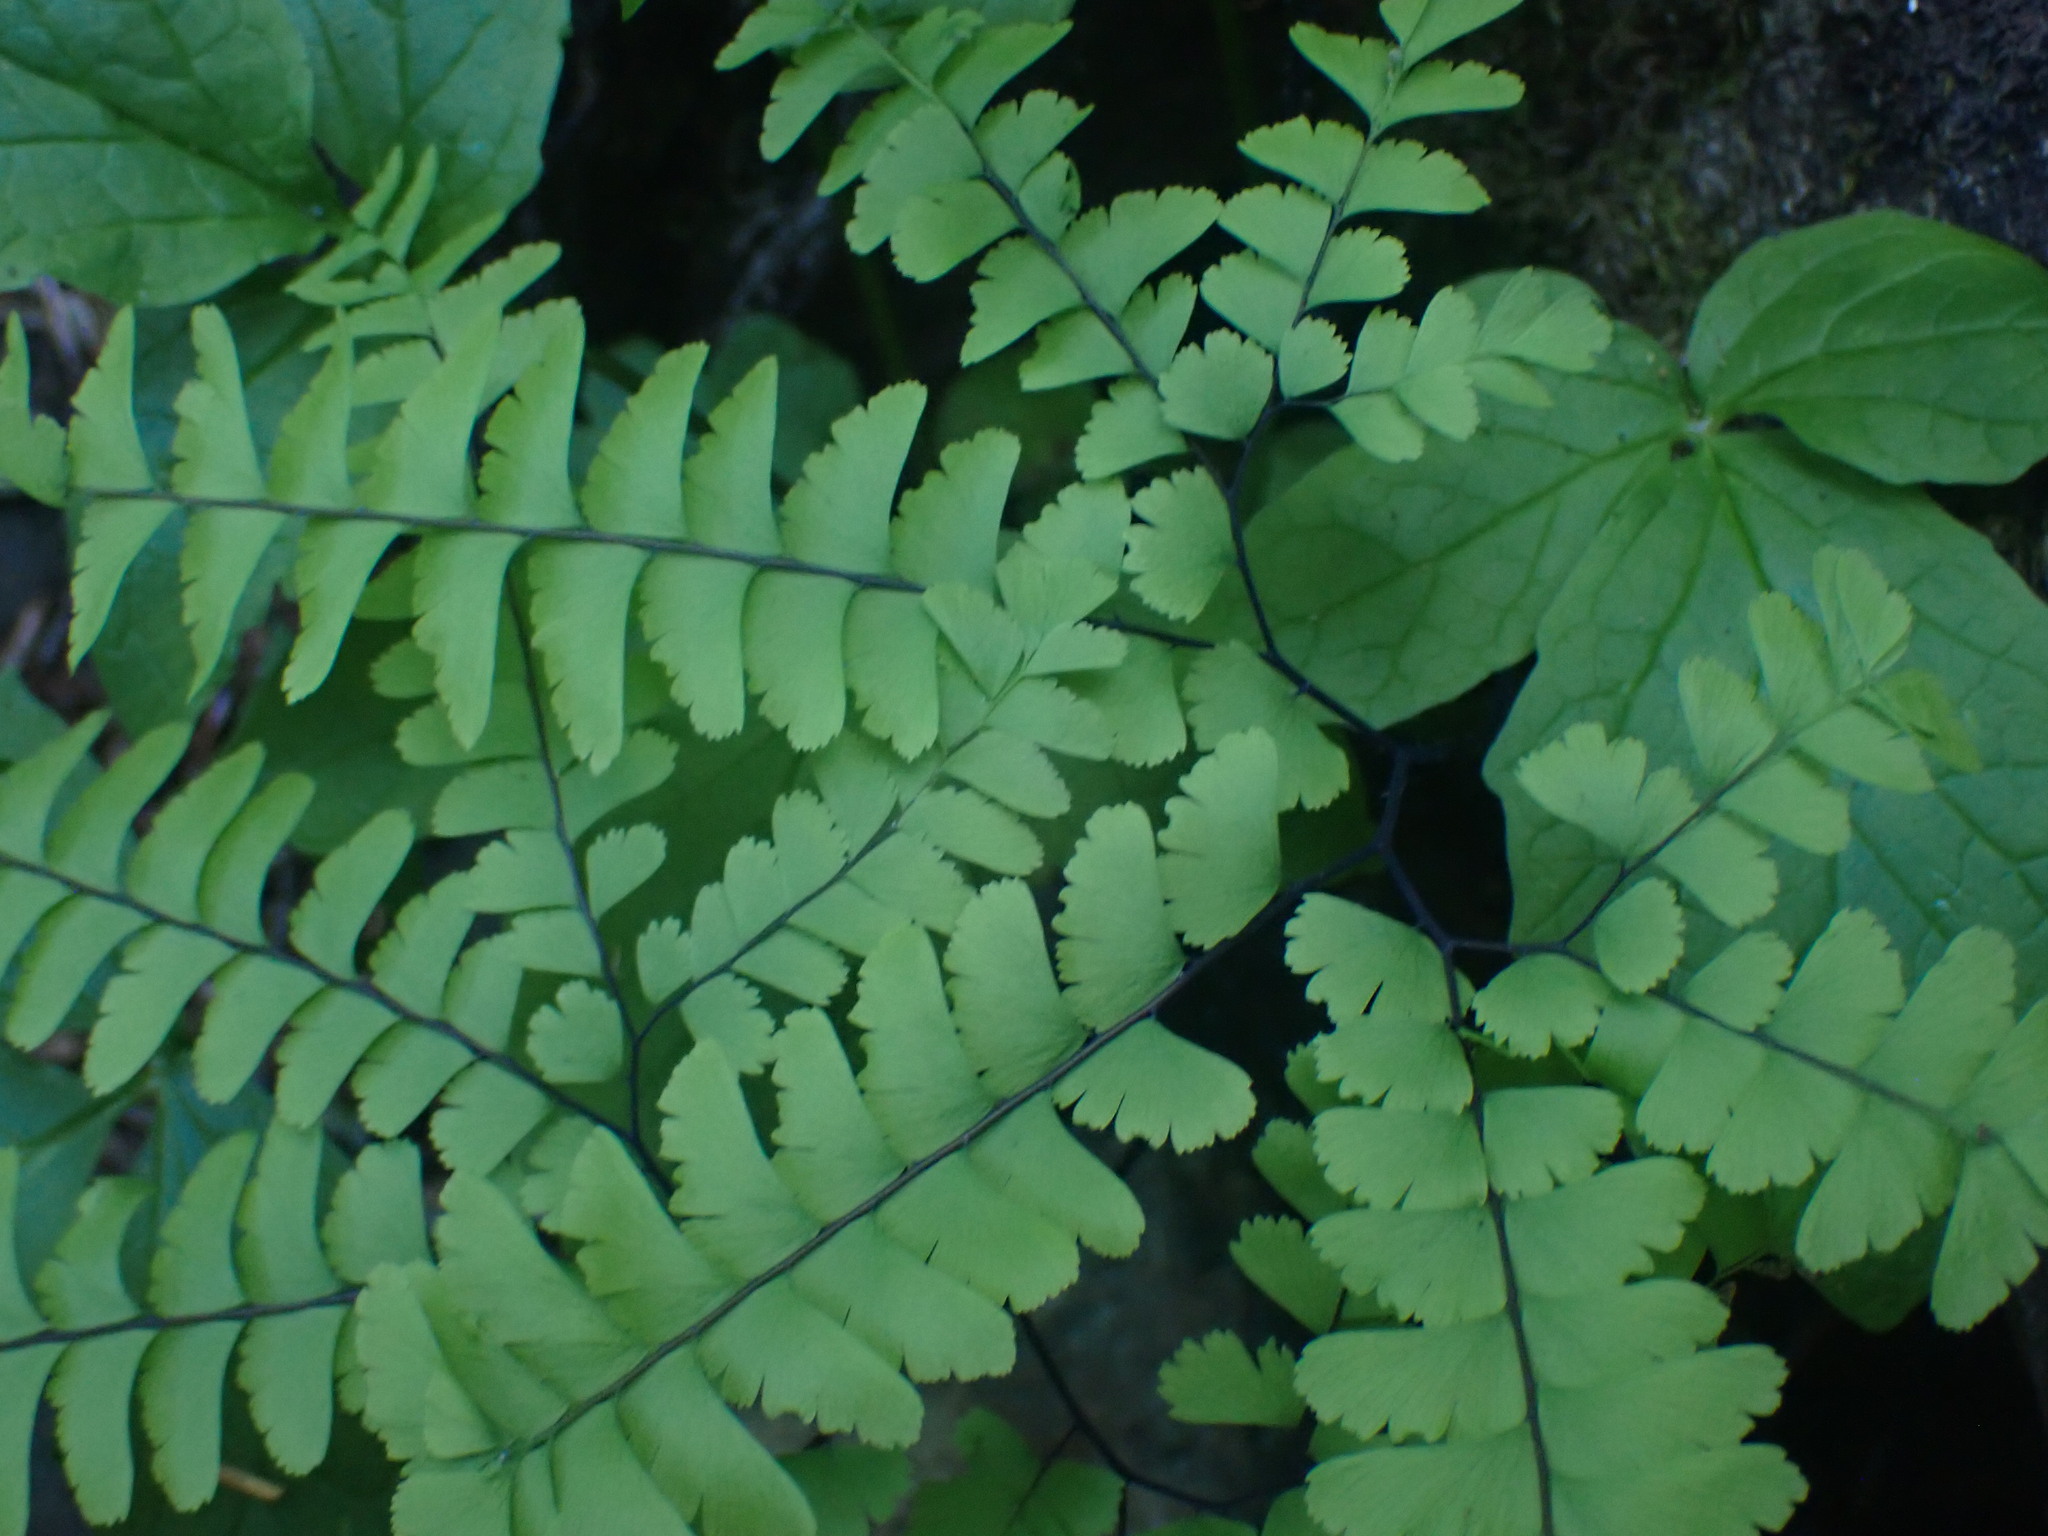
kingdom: Plantae
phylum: Tracheophyta
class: Polypodiopsida
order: Polypodiales
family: Pteridaceae
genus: Adiantum
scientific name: Adiantum aleuticum
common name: Aleutian maidenhair fern
